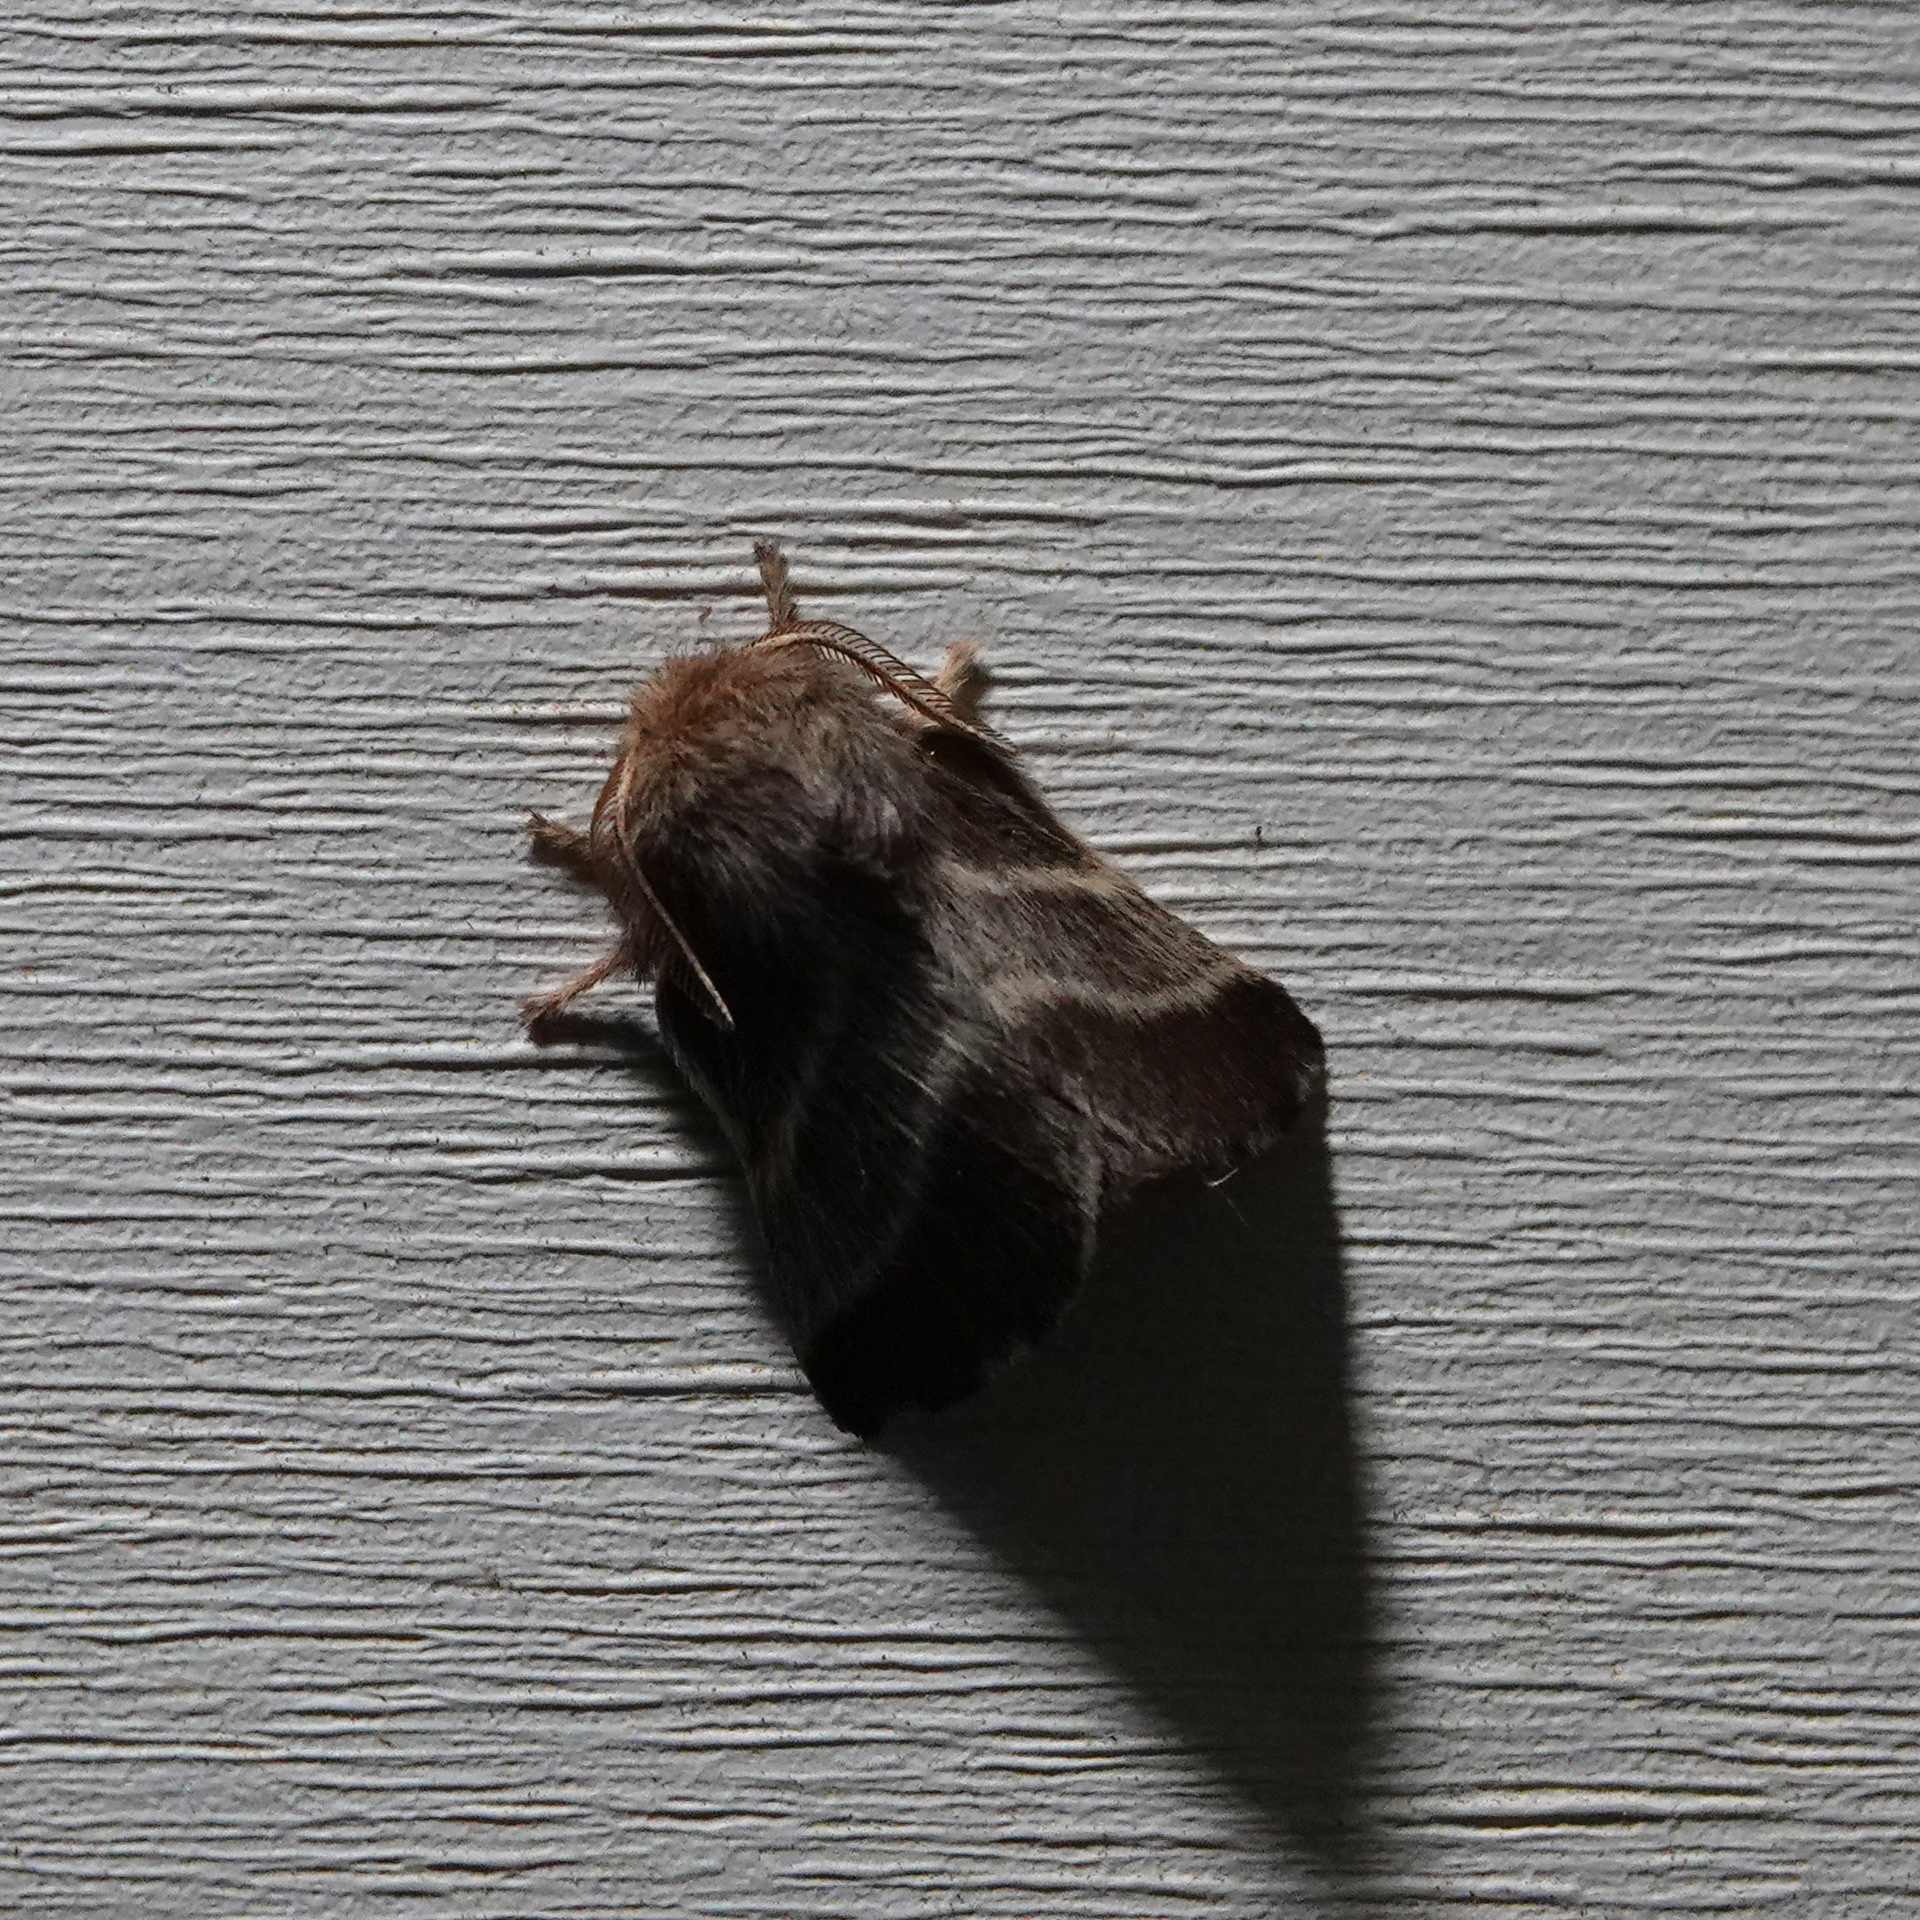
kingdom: Animalia
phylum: Arthropoda
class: Insecta
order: Lepidoptera
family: Lasiocampidae
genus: Malacosoma
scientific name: Malacosoma americana
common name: Eastern tent caterpillar moth
